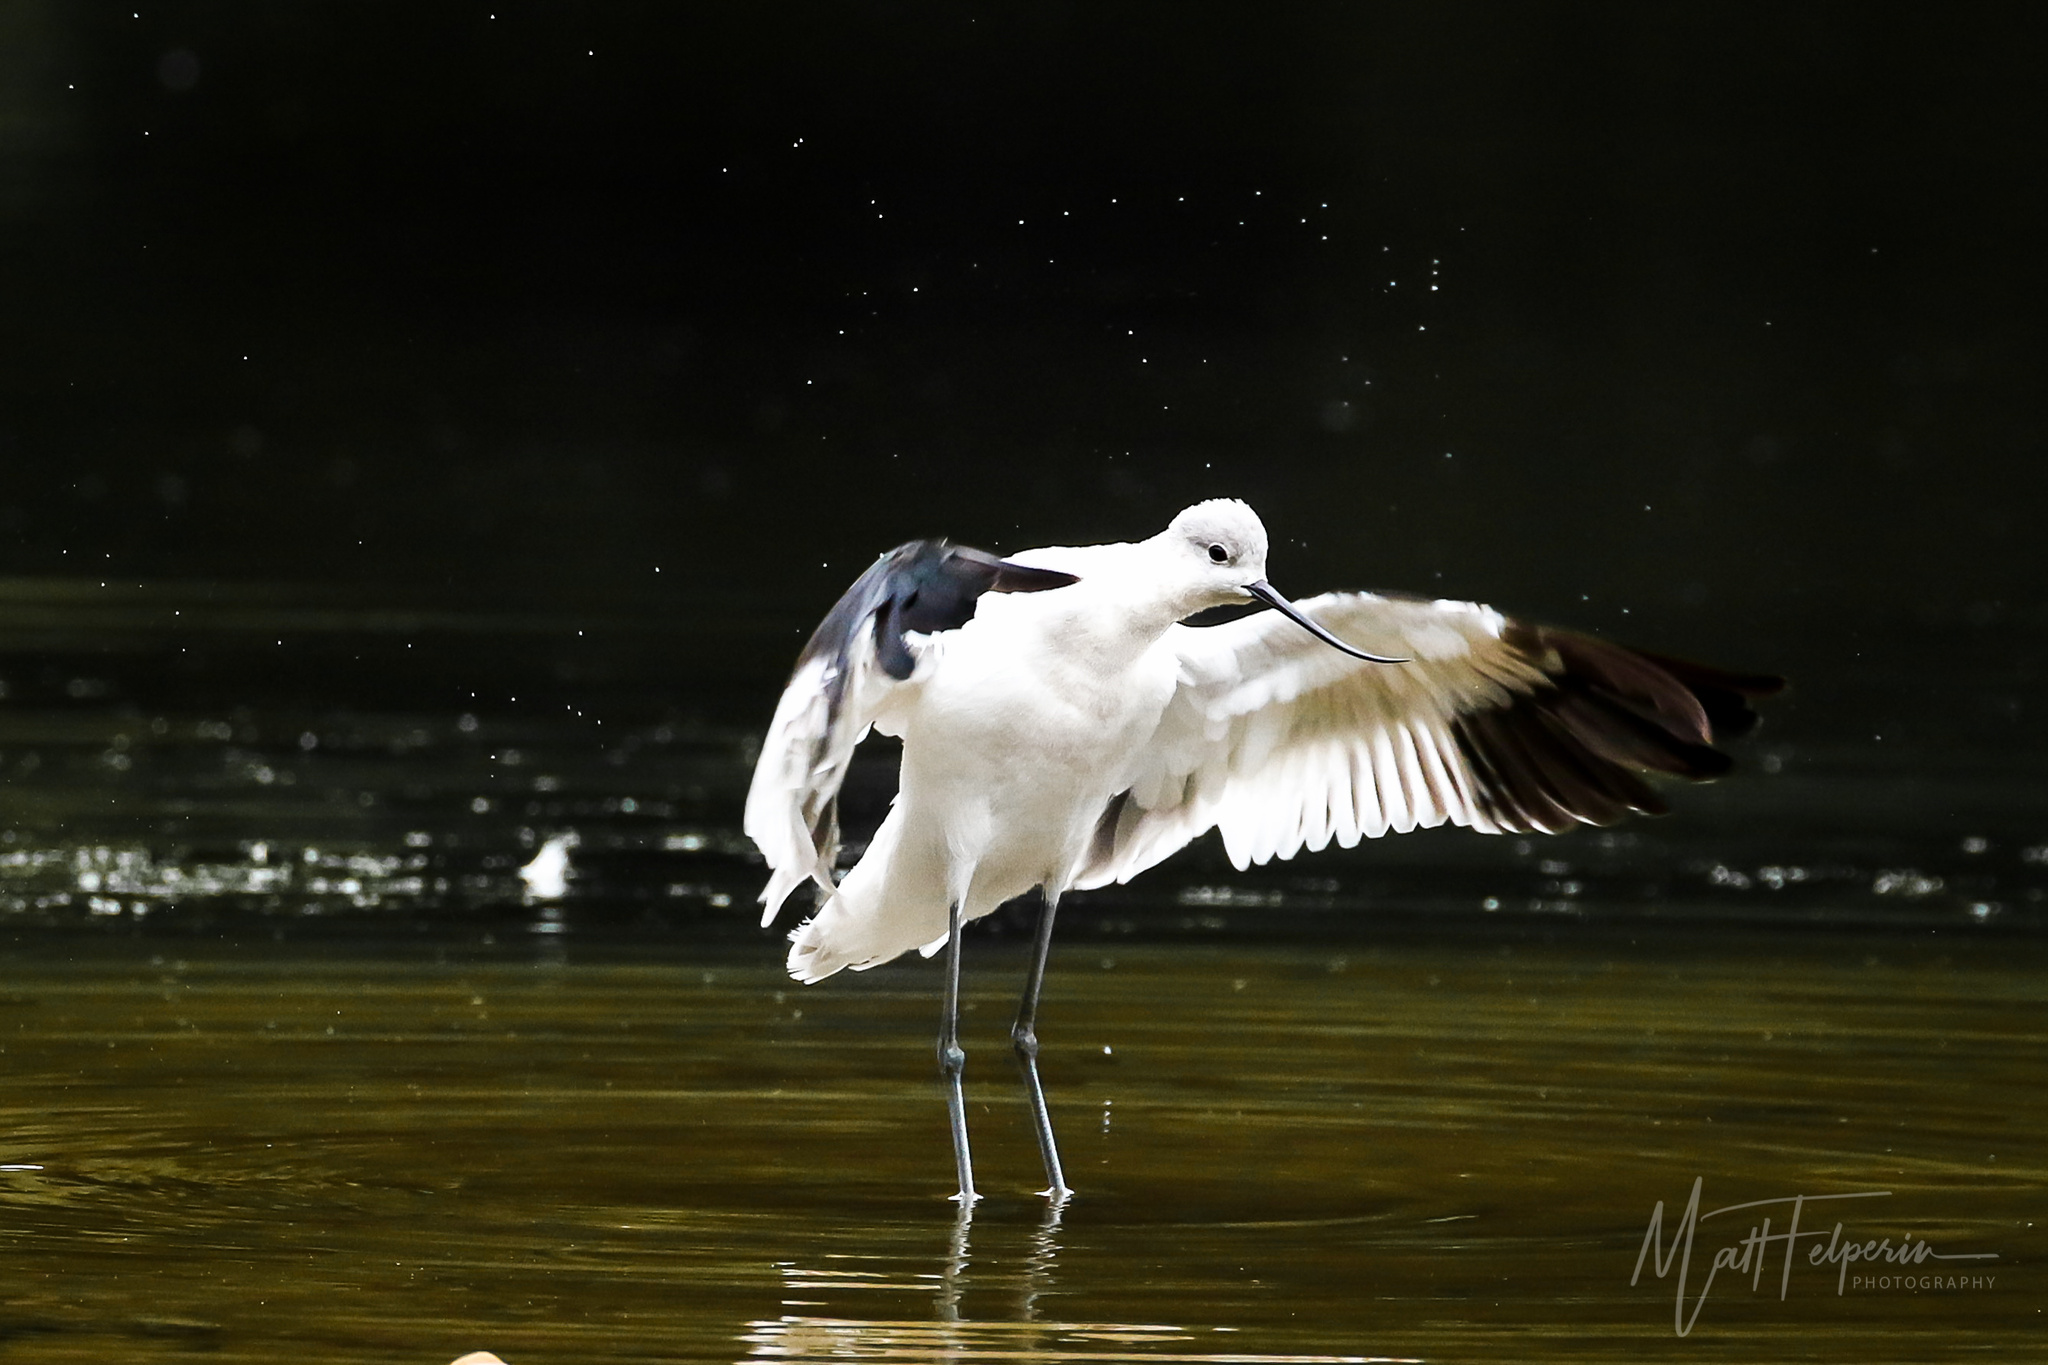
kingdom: Animalia
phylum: Chordata
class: Aves
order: Charadriiformes
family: Recurvirostridae
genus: Recurvirostra
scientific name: Recurvirostra americana
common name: American avocet
